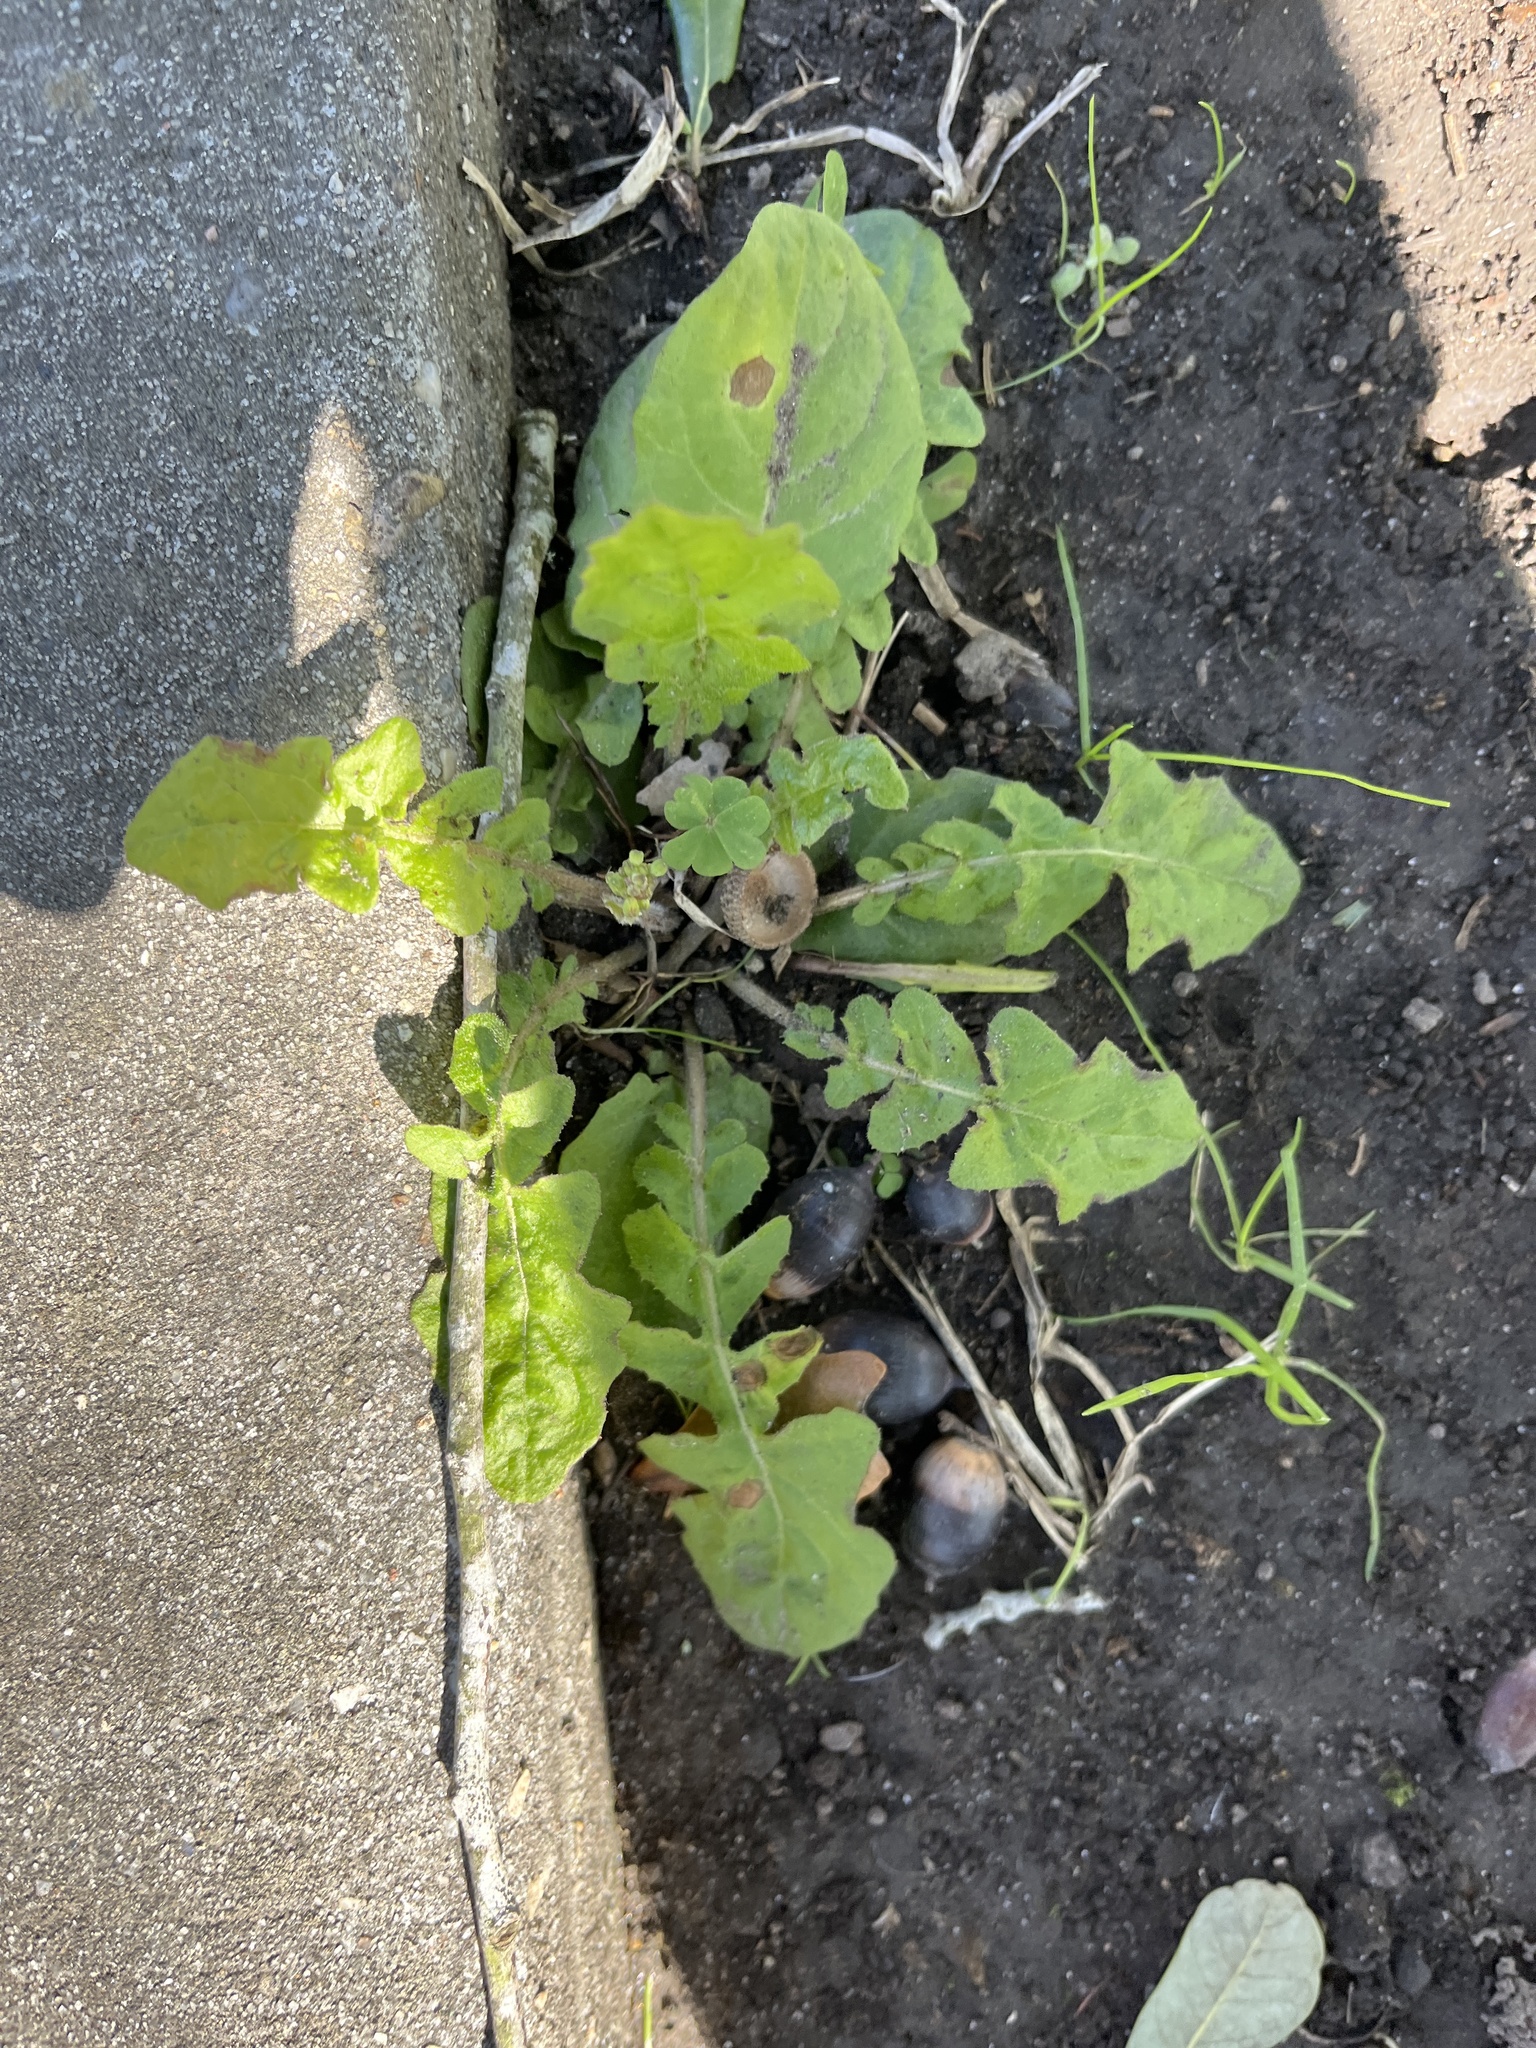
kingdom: Plantae
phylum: Tracheophyta
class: Magnoliopsida
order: Asterales
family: Asteraceae
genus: Youngia
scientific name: Youngia japonica
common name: Oriental false hawksbeard
